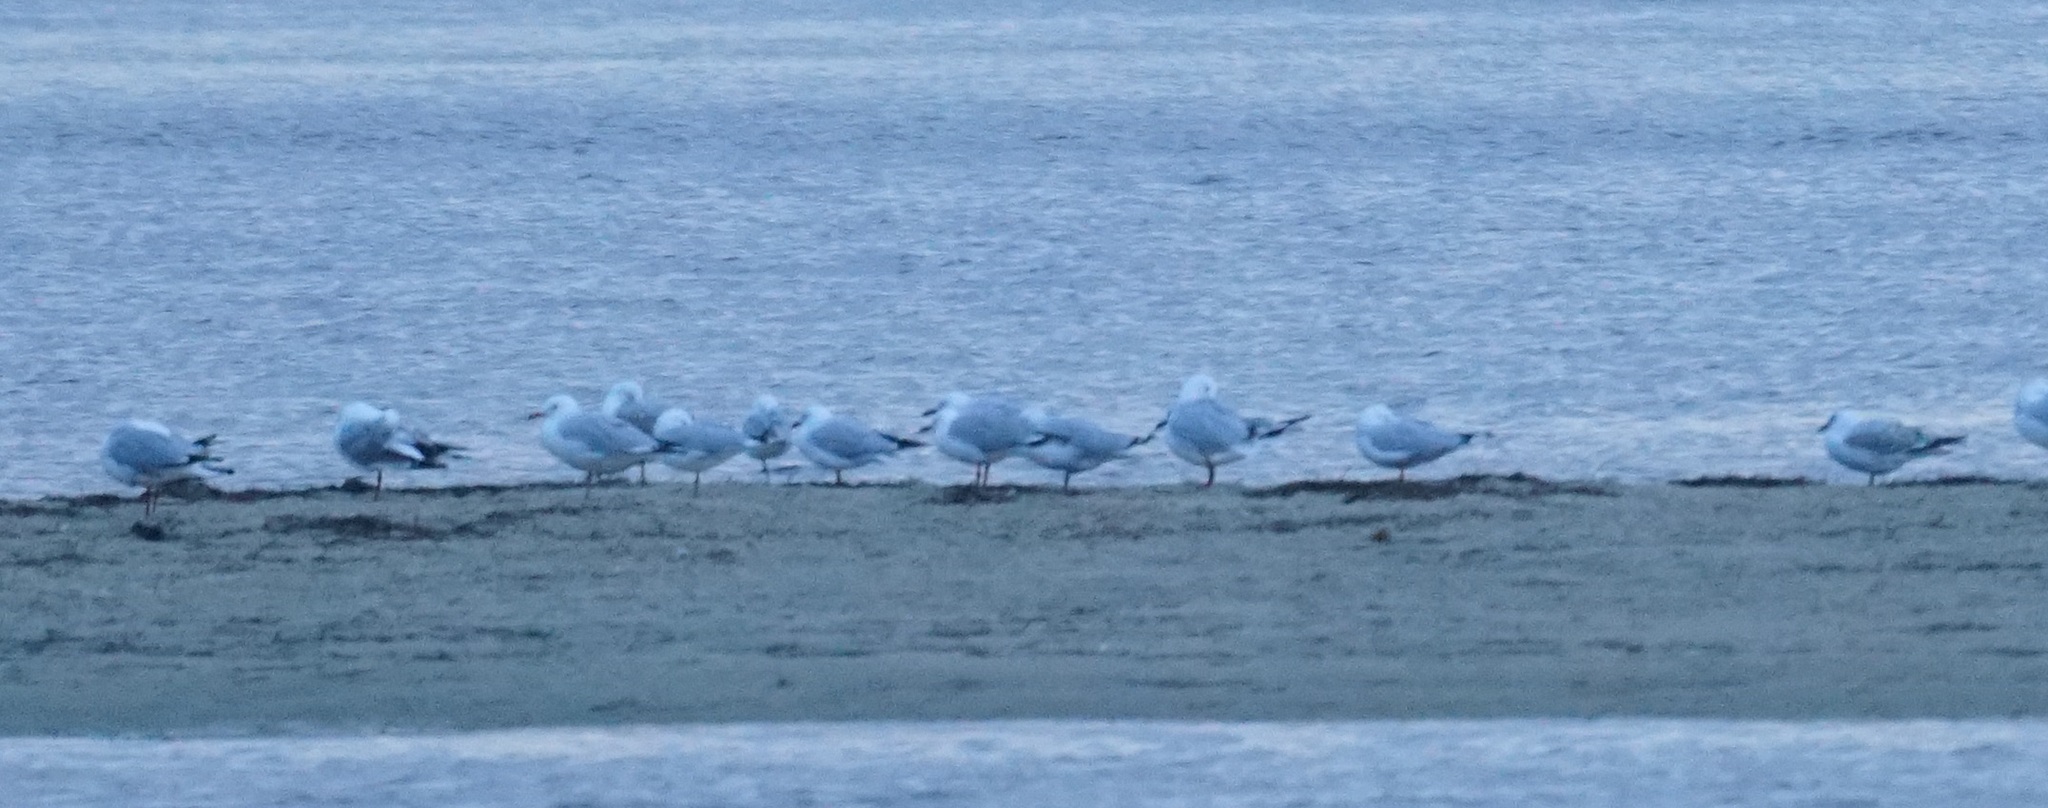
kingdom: Animalia
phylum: Chordata
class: Aves
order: Charadriiformes
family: Laridae
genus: Chroicocephalus
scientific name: Chroicocephalus novaehollandiae
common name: Silver gull
